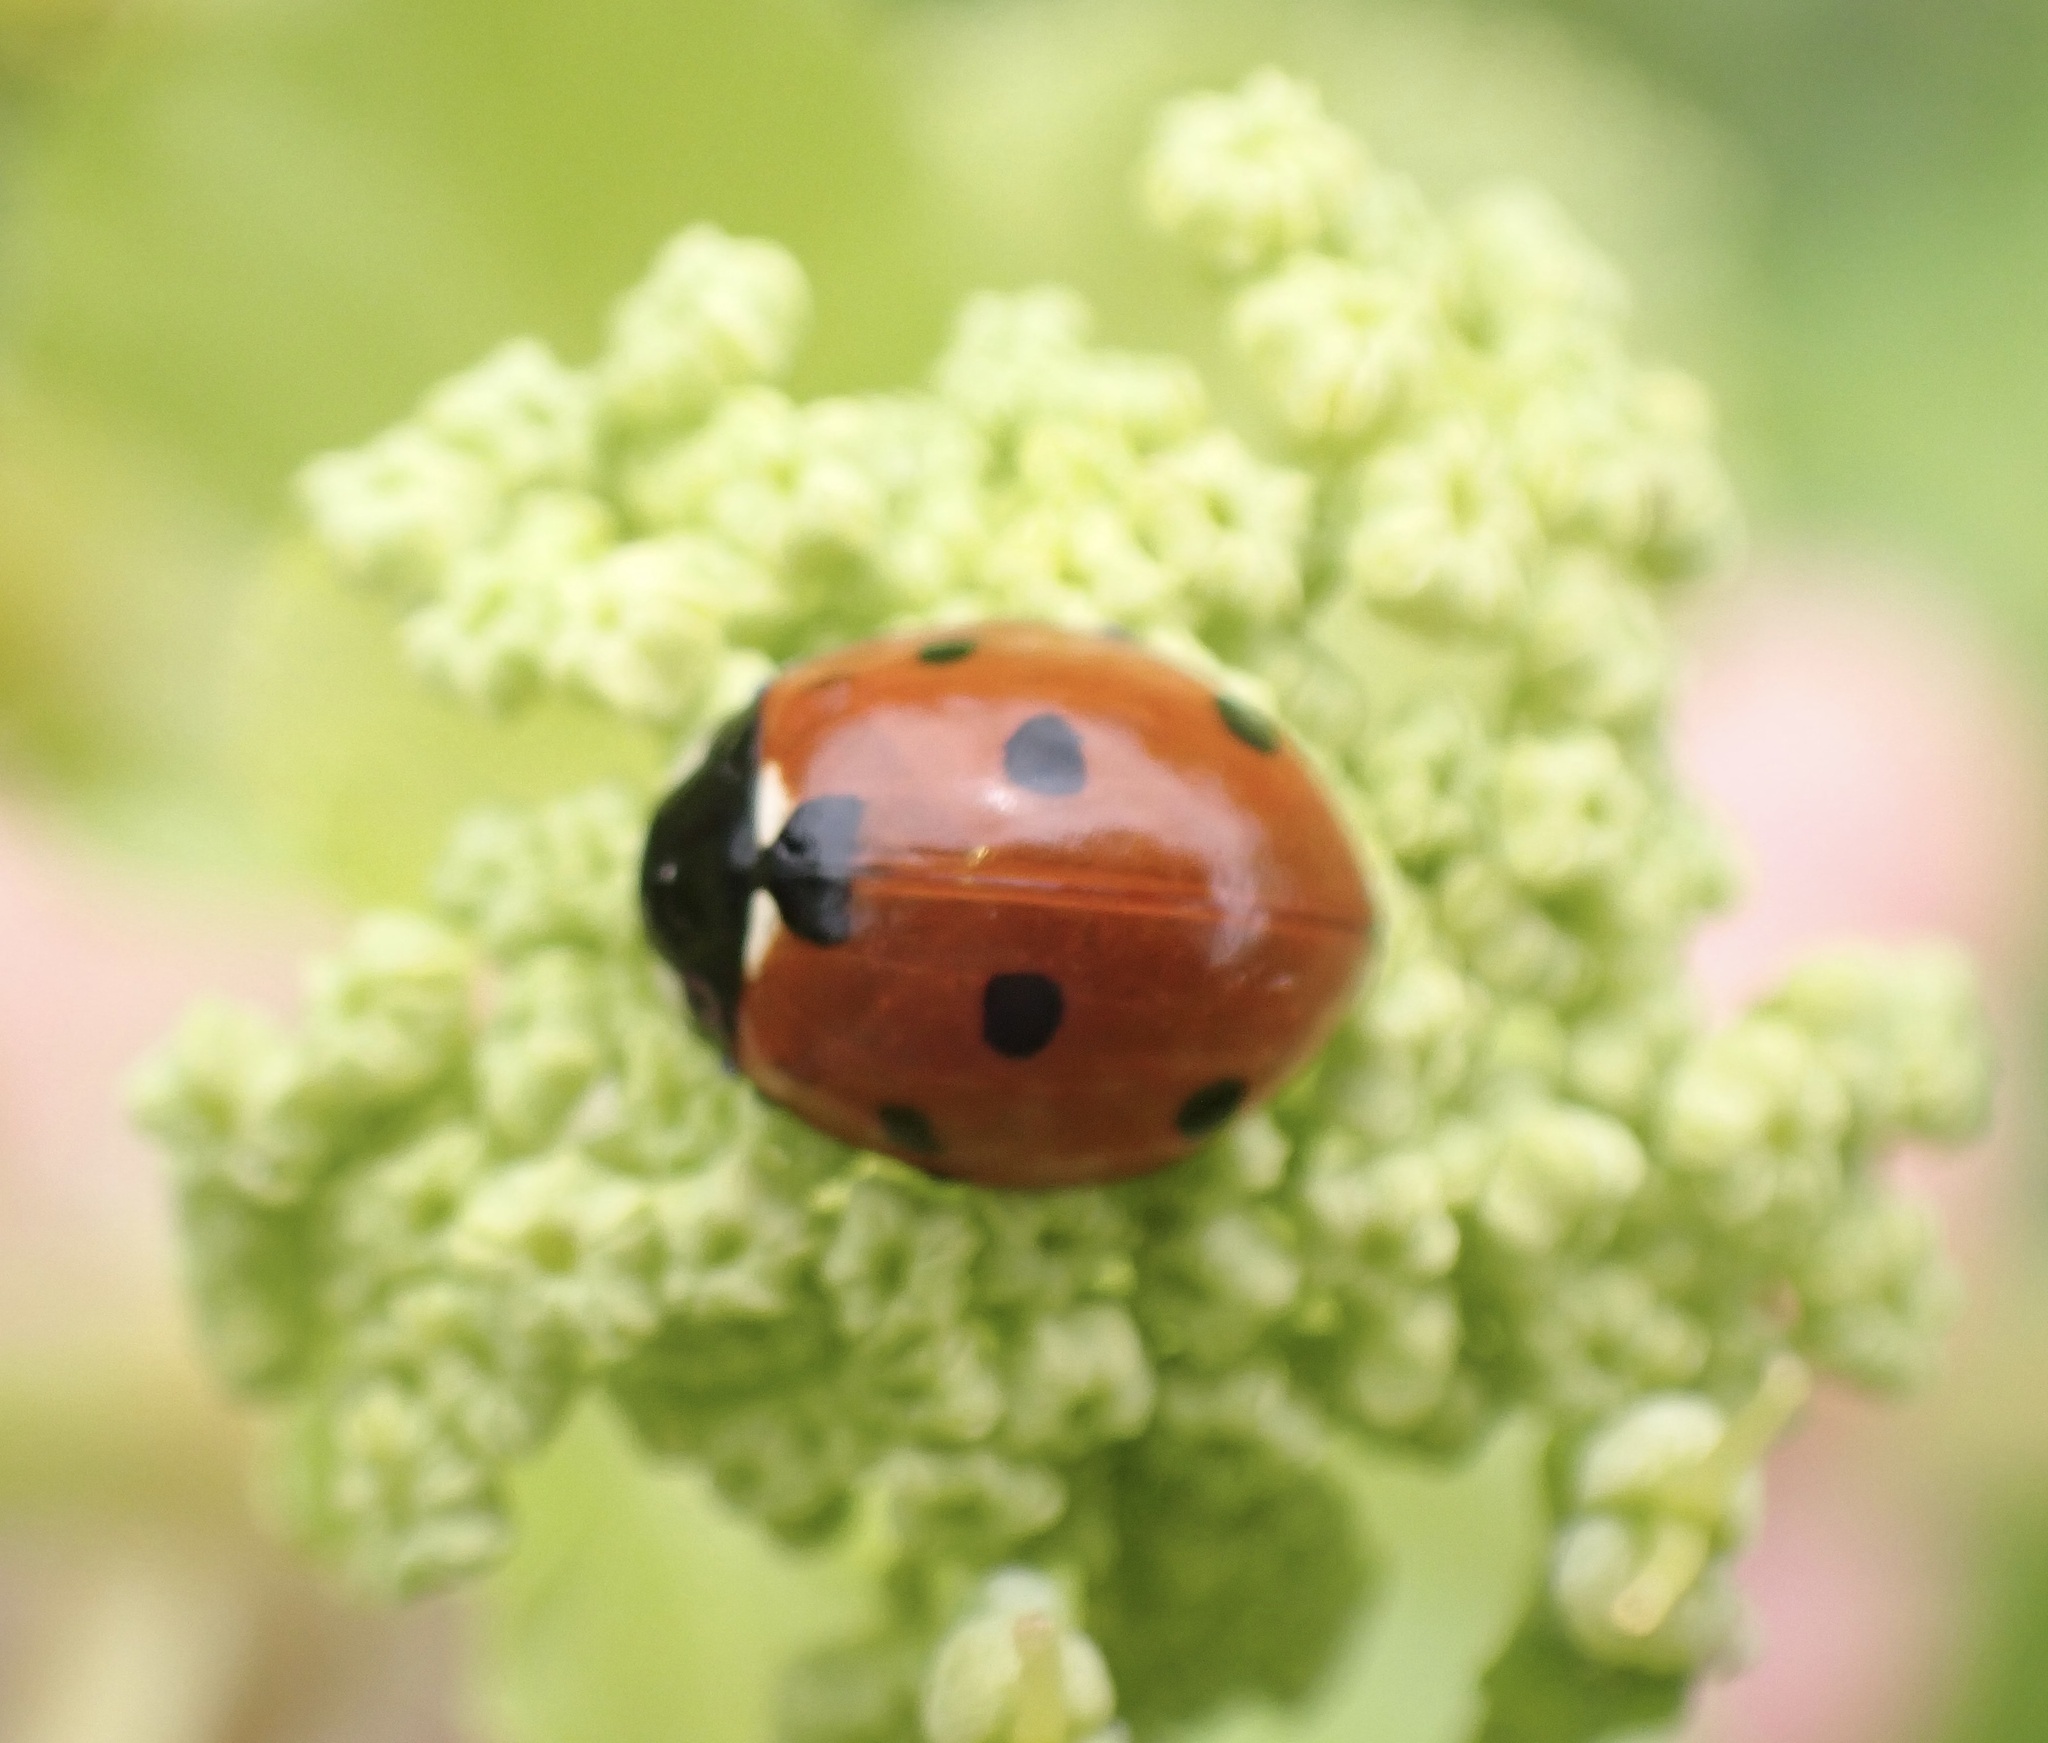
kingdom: Animalia
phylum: Arthropoda
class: Insecta
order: Coleoptera
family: Coccinellidae
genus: Coccinella
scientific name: Coccinella septempunctata
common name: Sevenspotted lady beetle
